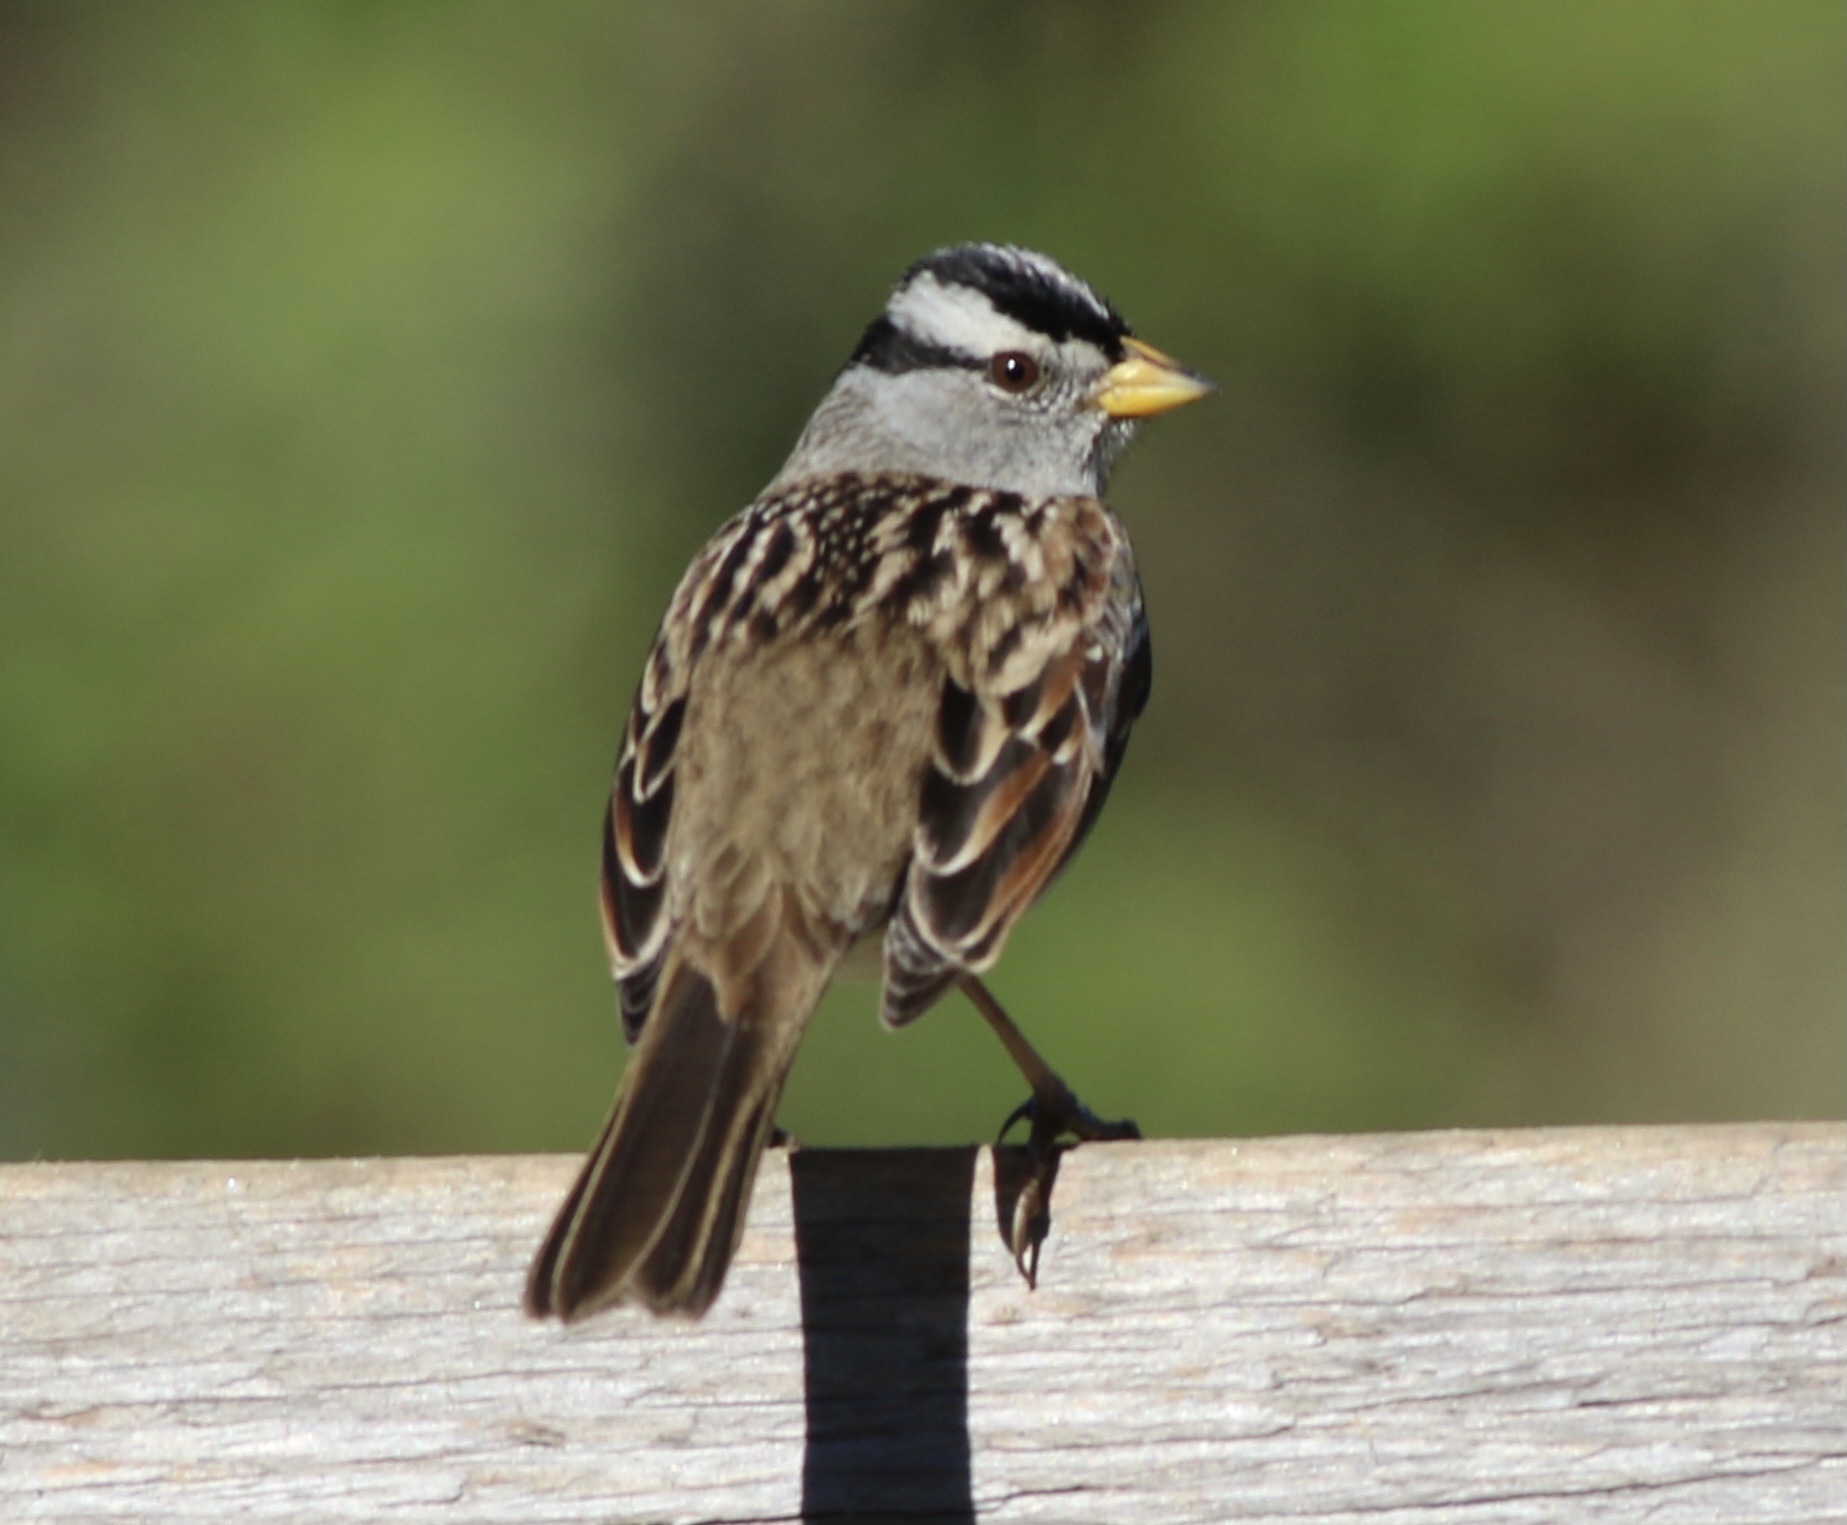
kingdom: Animalia
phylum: Chordata
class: Aves
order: Passeriformes
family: Passerellidae
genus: Zonotrichia
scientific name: Zonotrichia leucophrys
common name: White-crowned sparrow
